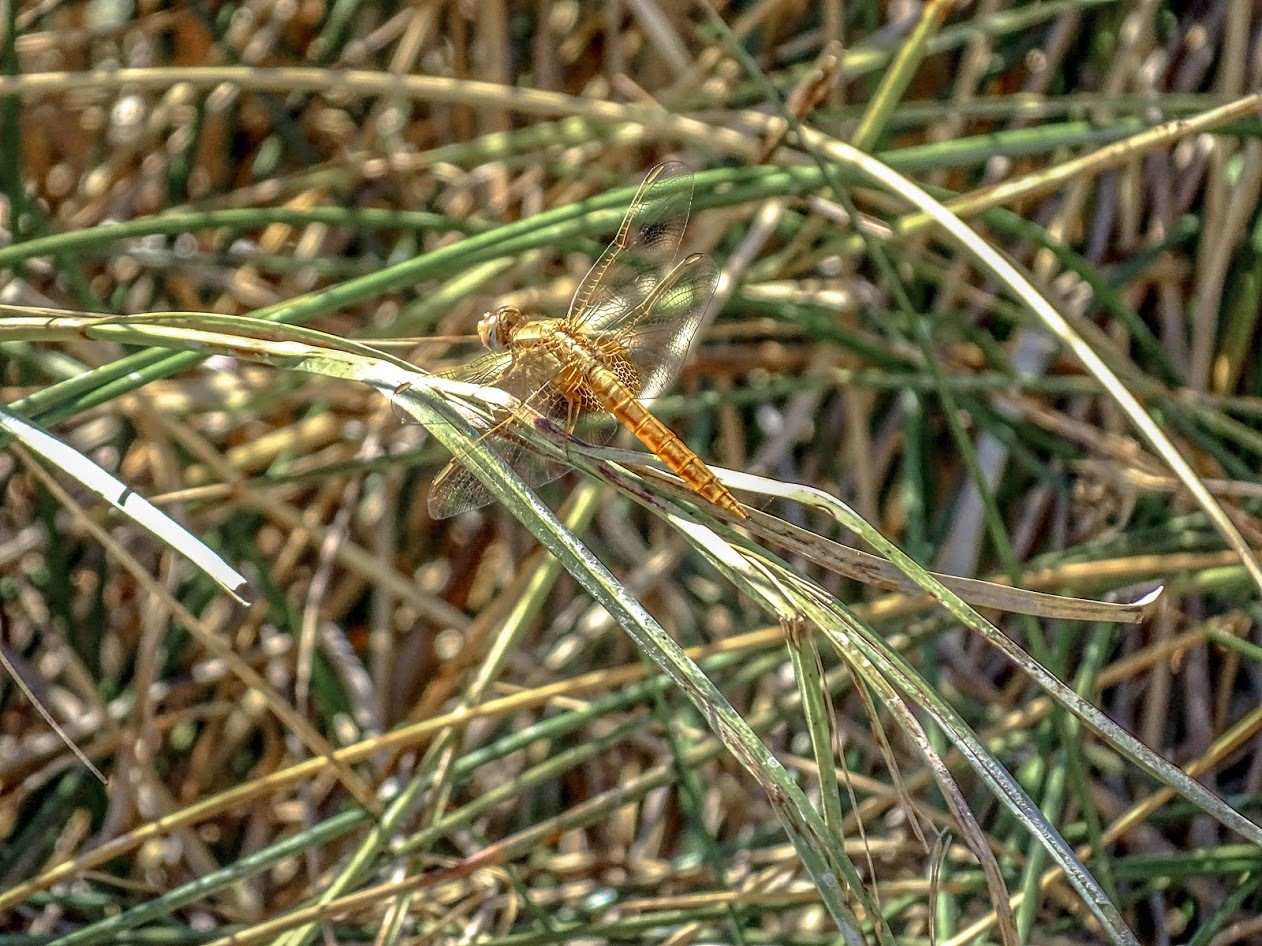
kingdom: Animalia
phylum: Arthropoda
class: Insecta
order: Odonata
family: Libellulidae
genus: Crocothemis
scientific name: Crocothemis erythraea
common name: Scarlet dragonfly
